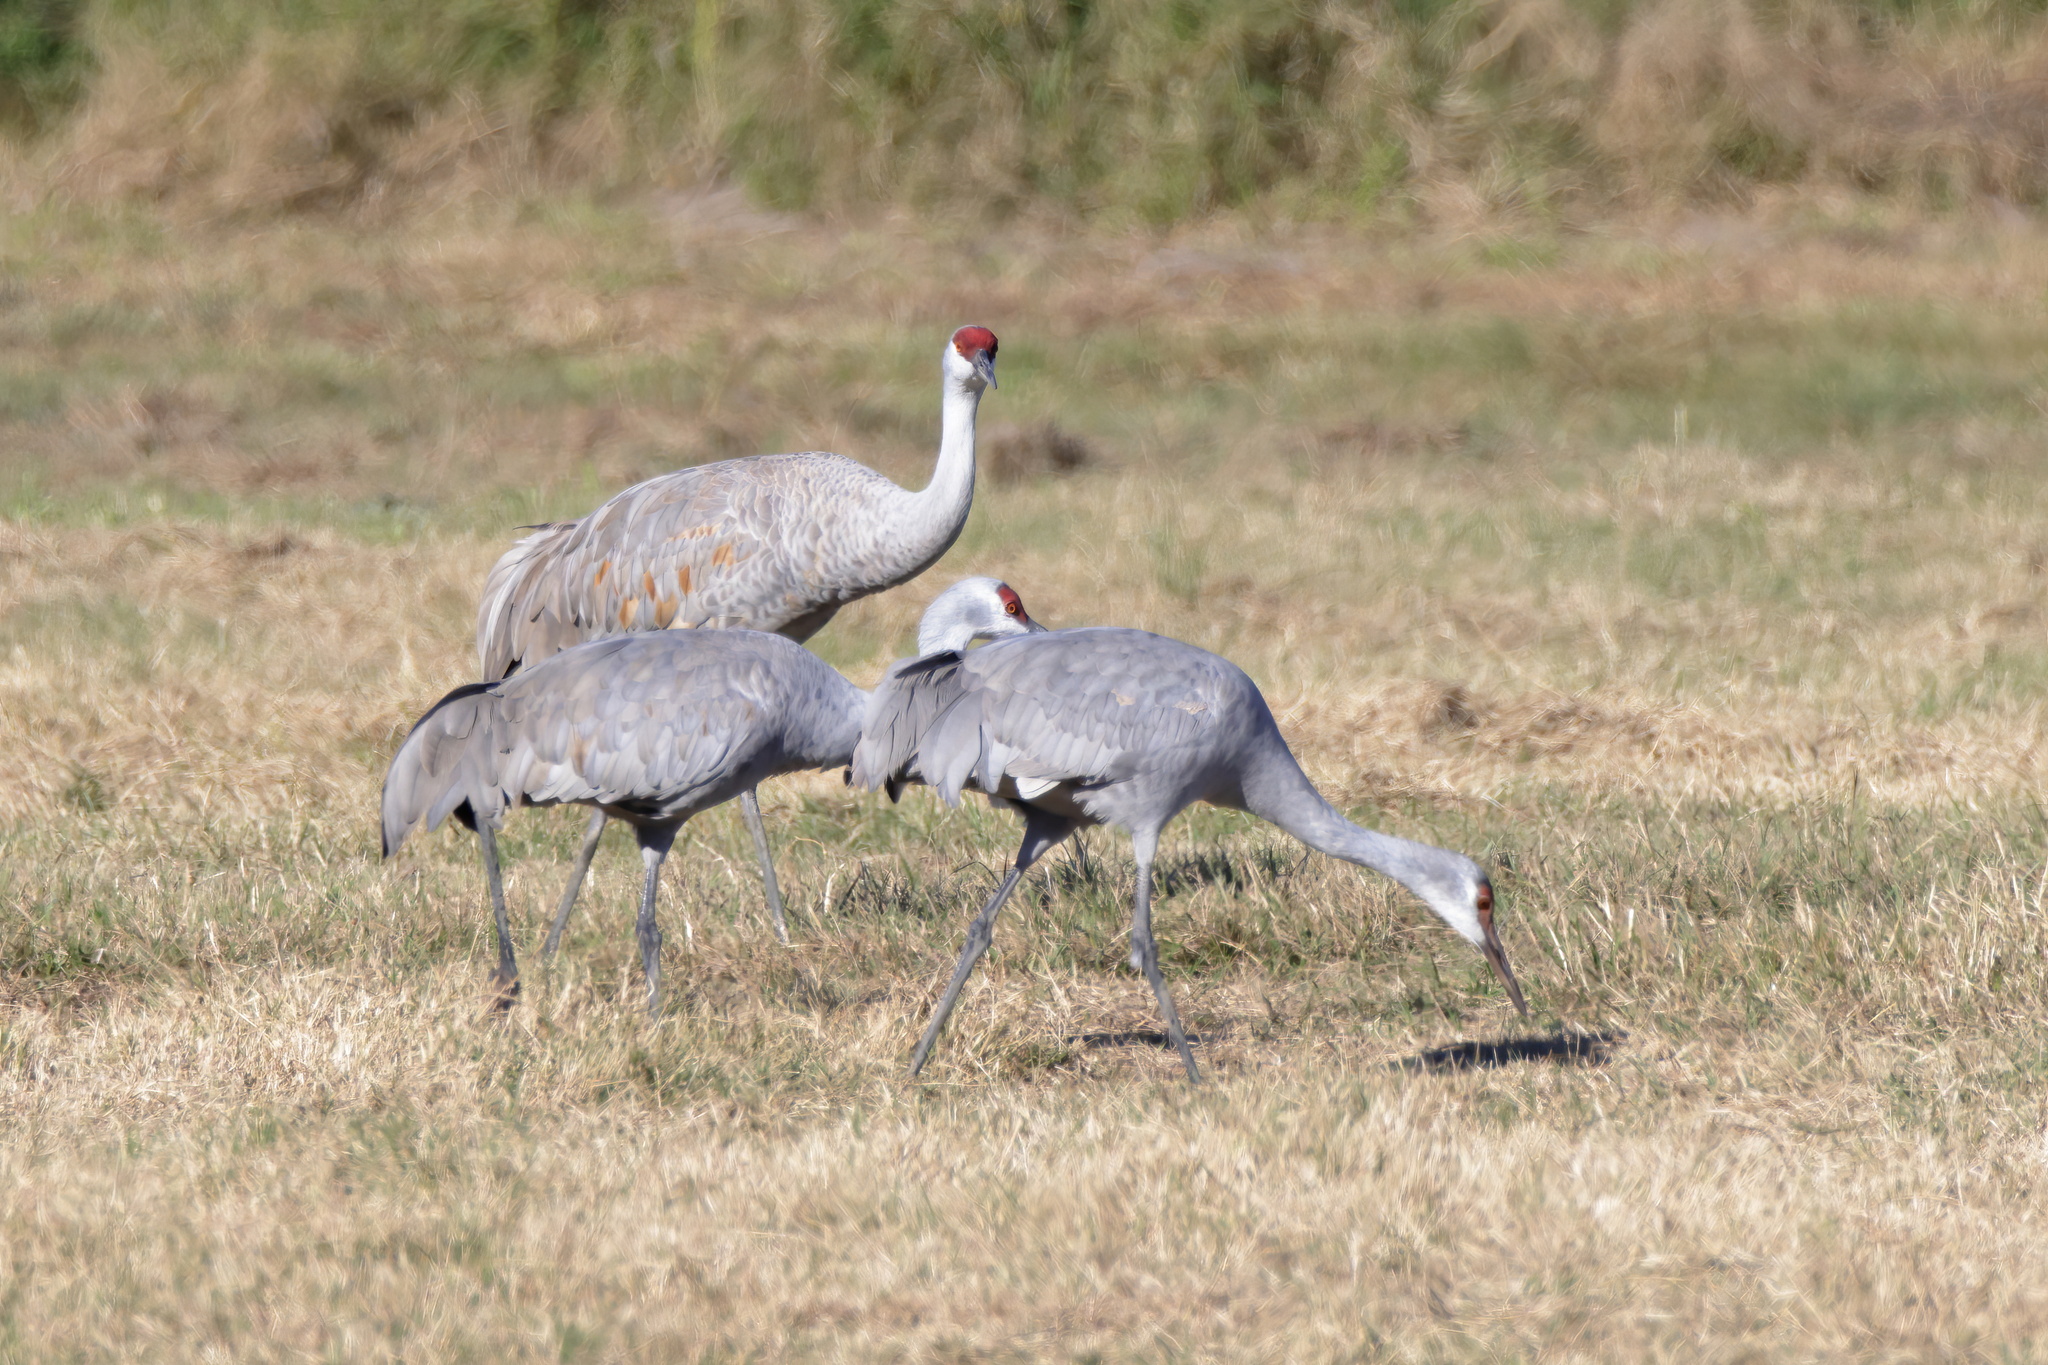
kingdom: Animalia
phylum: Chordata
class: Aves
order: Gruiformes
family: Gruidae
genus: Grus
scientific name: Grus canadensis
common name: Sandhill crane
